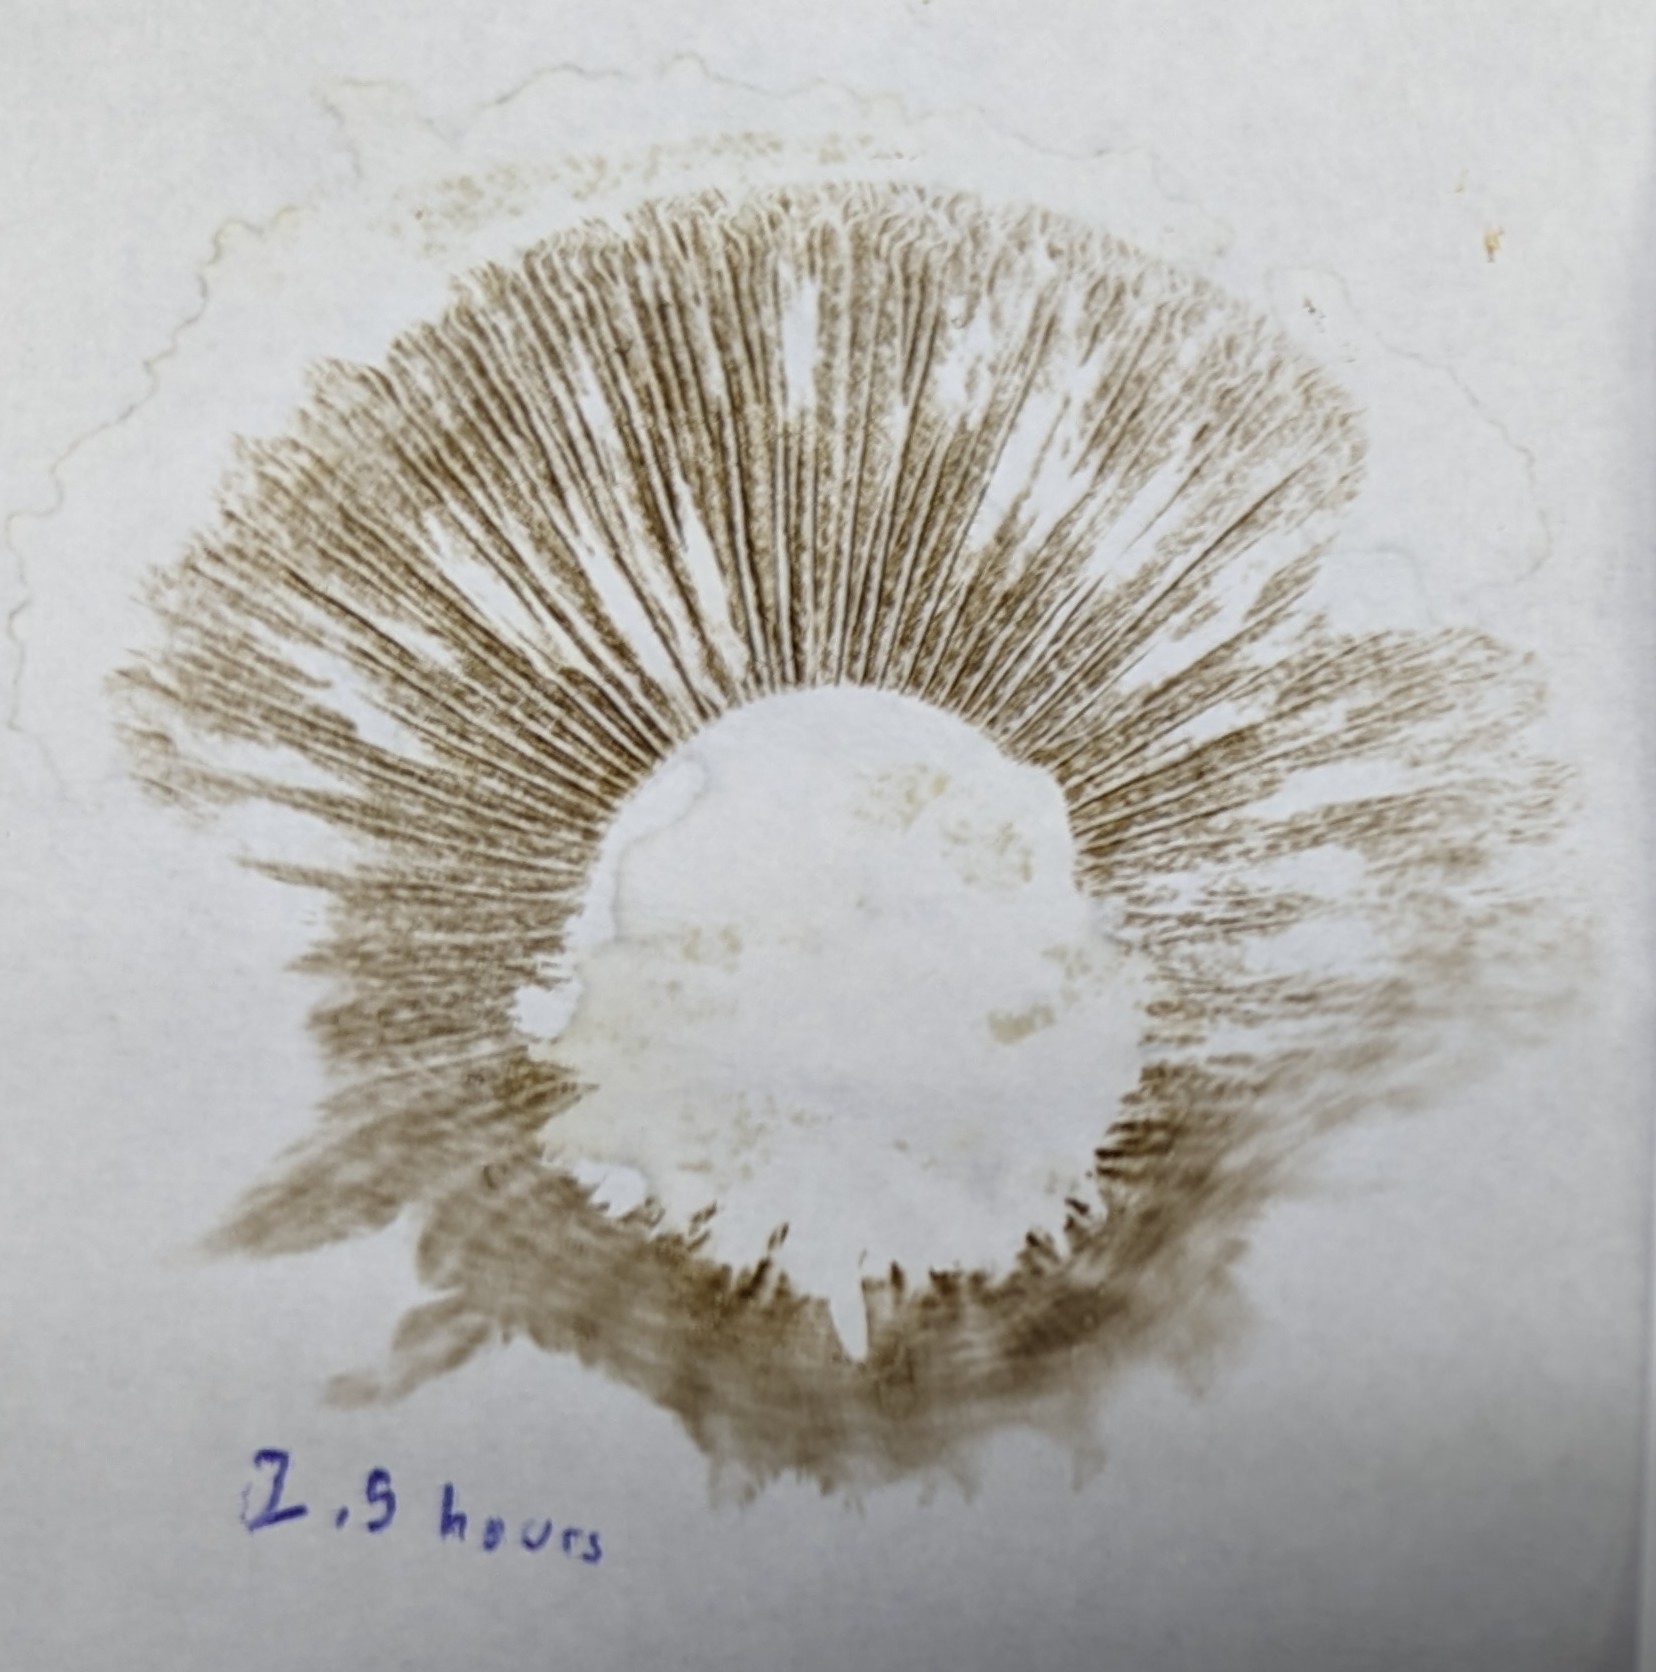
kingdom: Fungi
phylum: Basidiomycota
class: Agaricomycetes
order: Agaricales
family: Strophariaceae
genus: Pholiota
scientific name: Pholiota populnea
